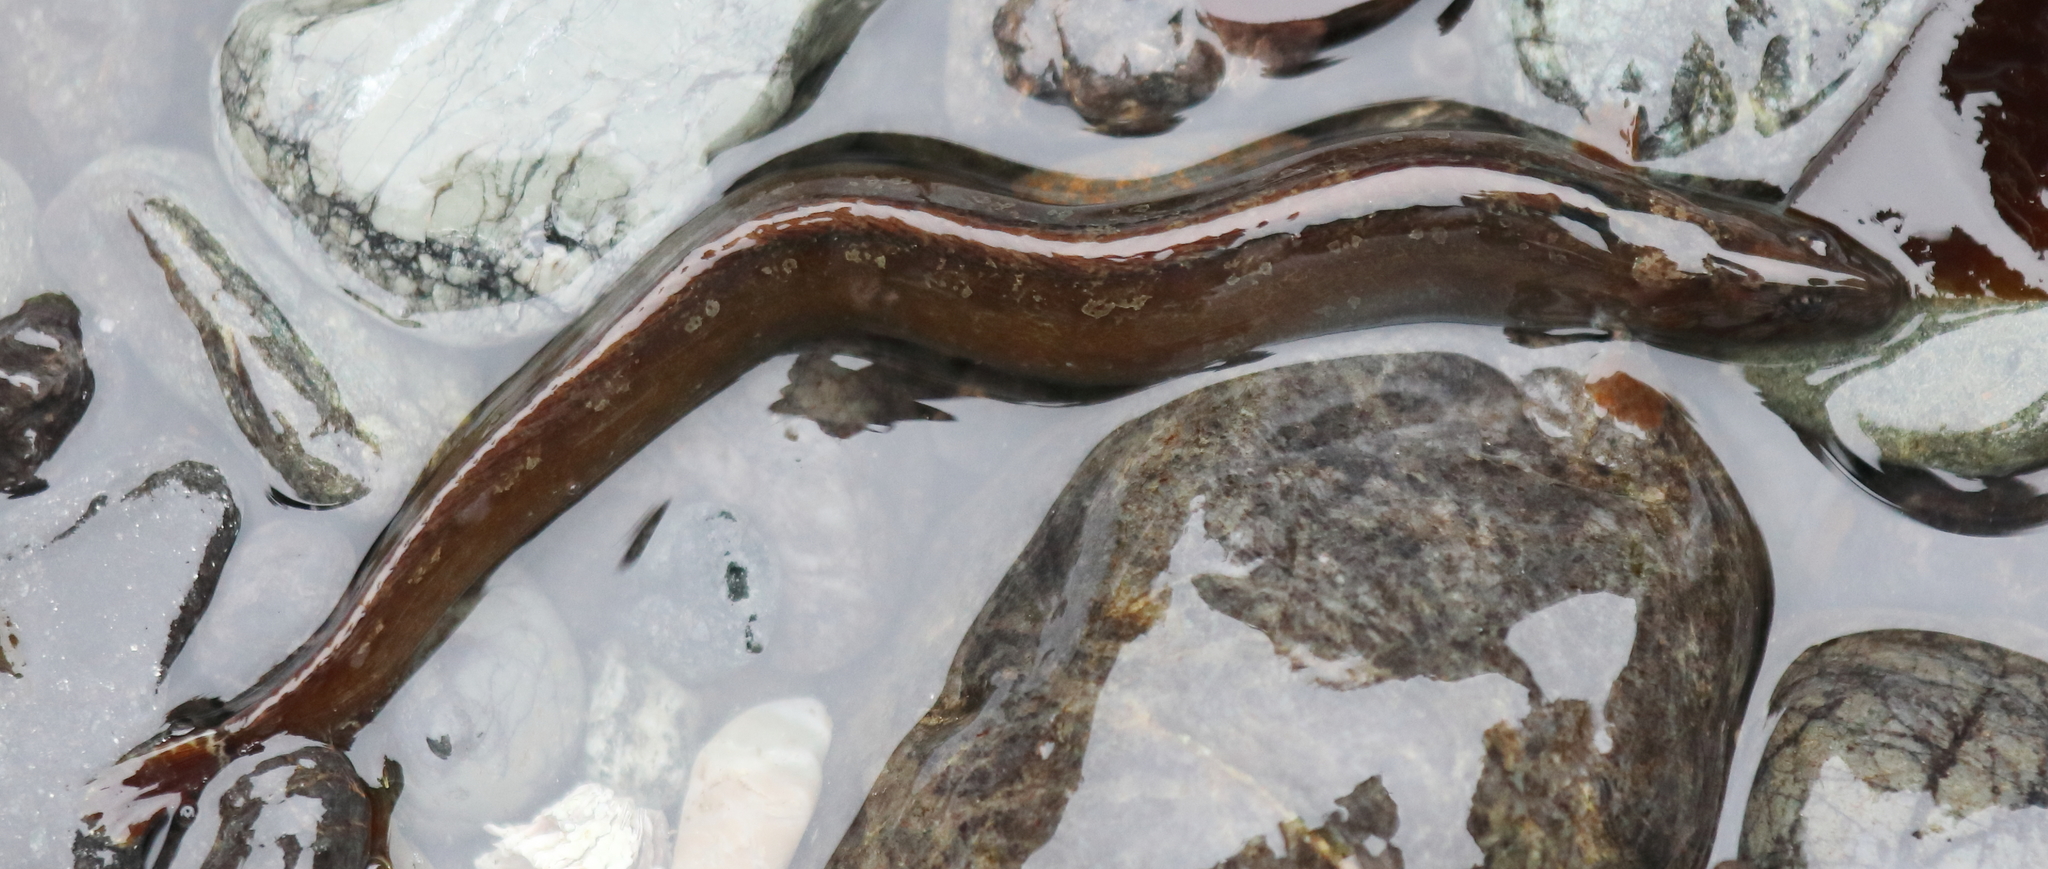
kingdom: Animalia
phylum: Chordata
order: Perciformes
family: Stichaeidae
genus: Anoplarchus
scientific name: Anoplarchus insignis
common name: Slender cockscomb
